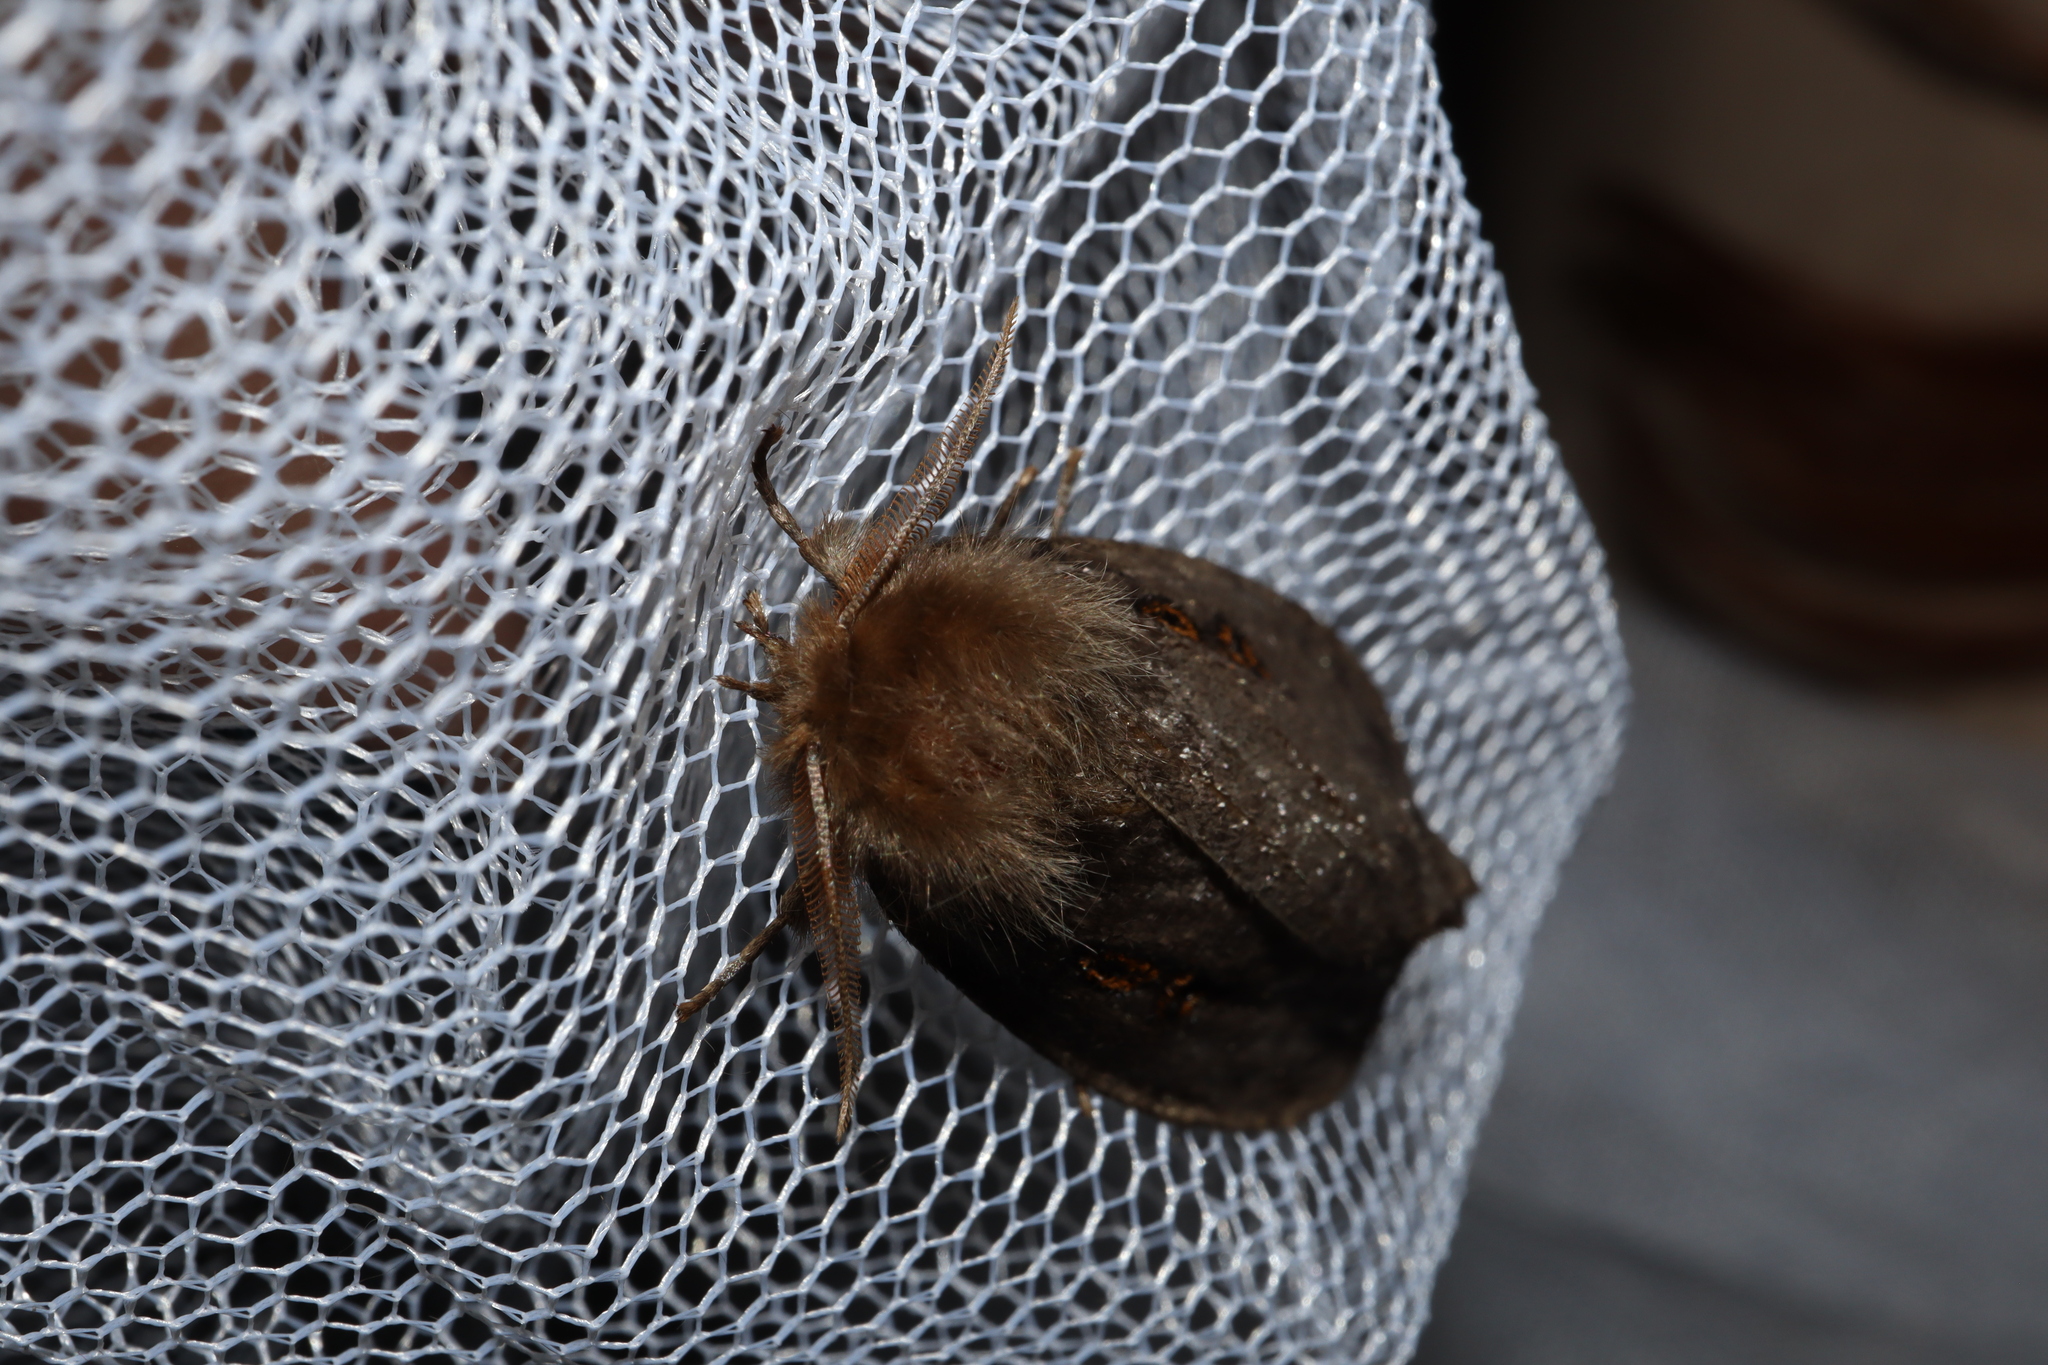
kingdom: Animalia
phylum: Arthropoda
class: Insecta
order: Lepidoptera
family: Erebidae
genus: Leptocneria
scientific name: Leptocneria reducta
